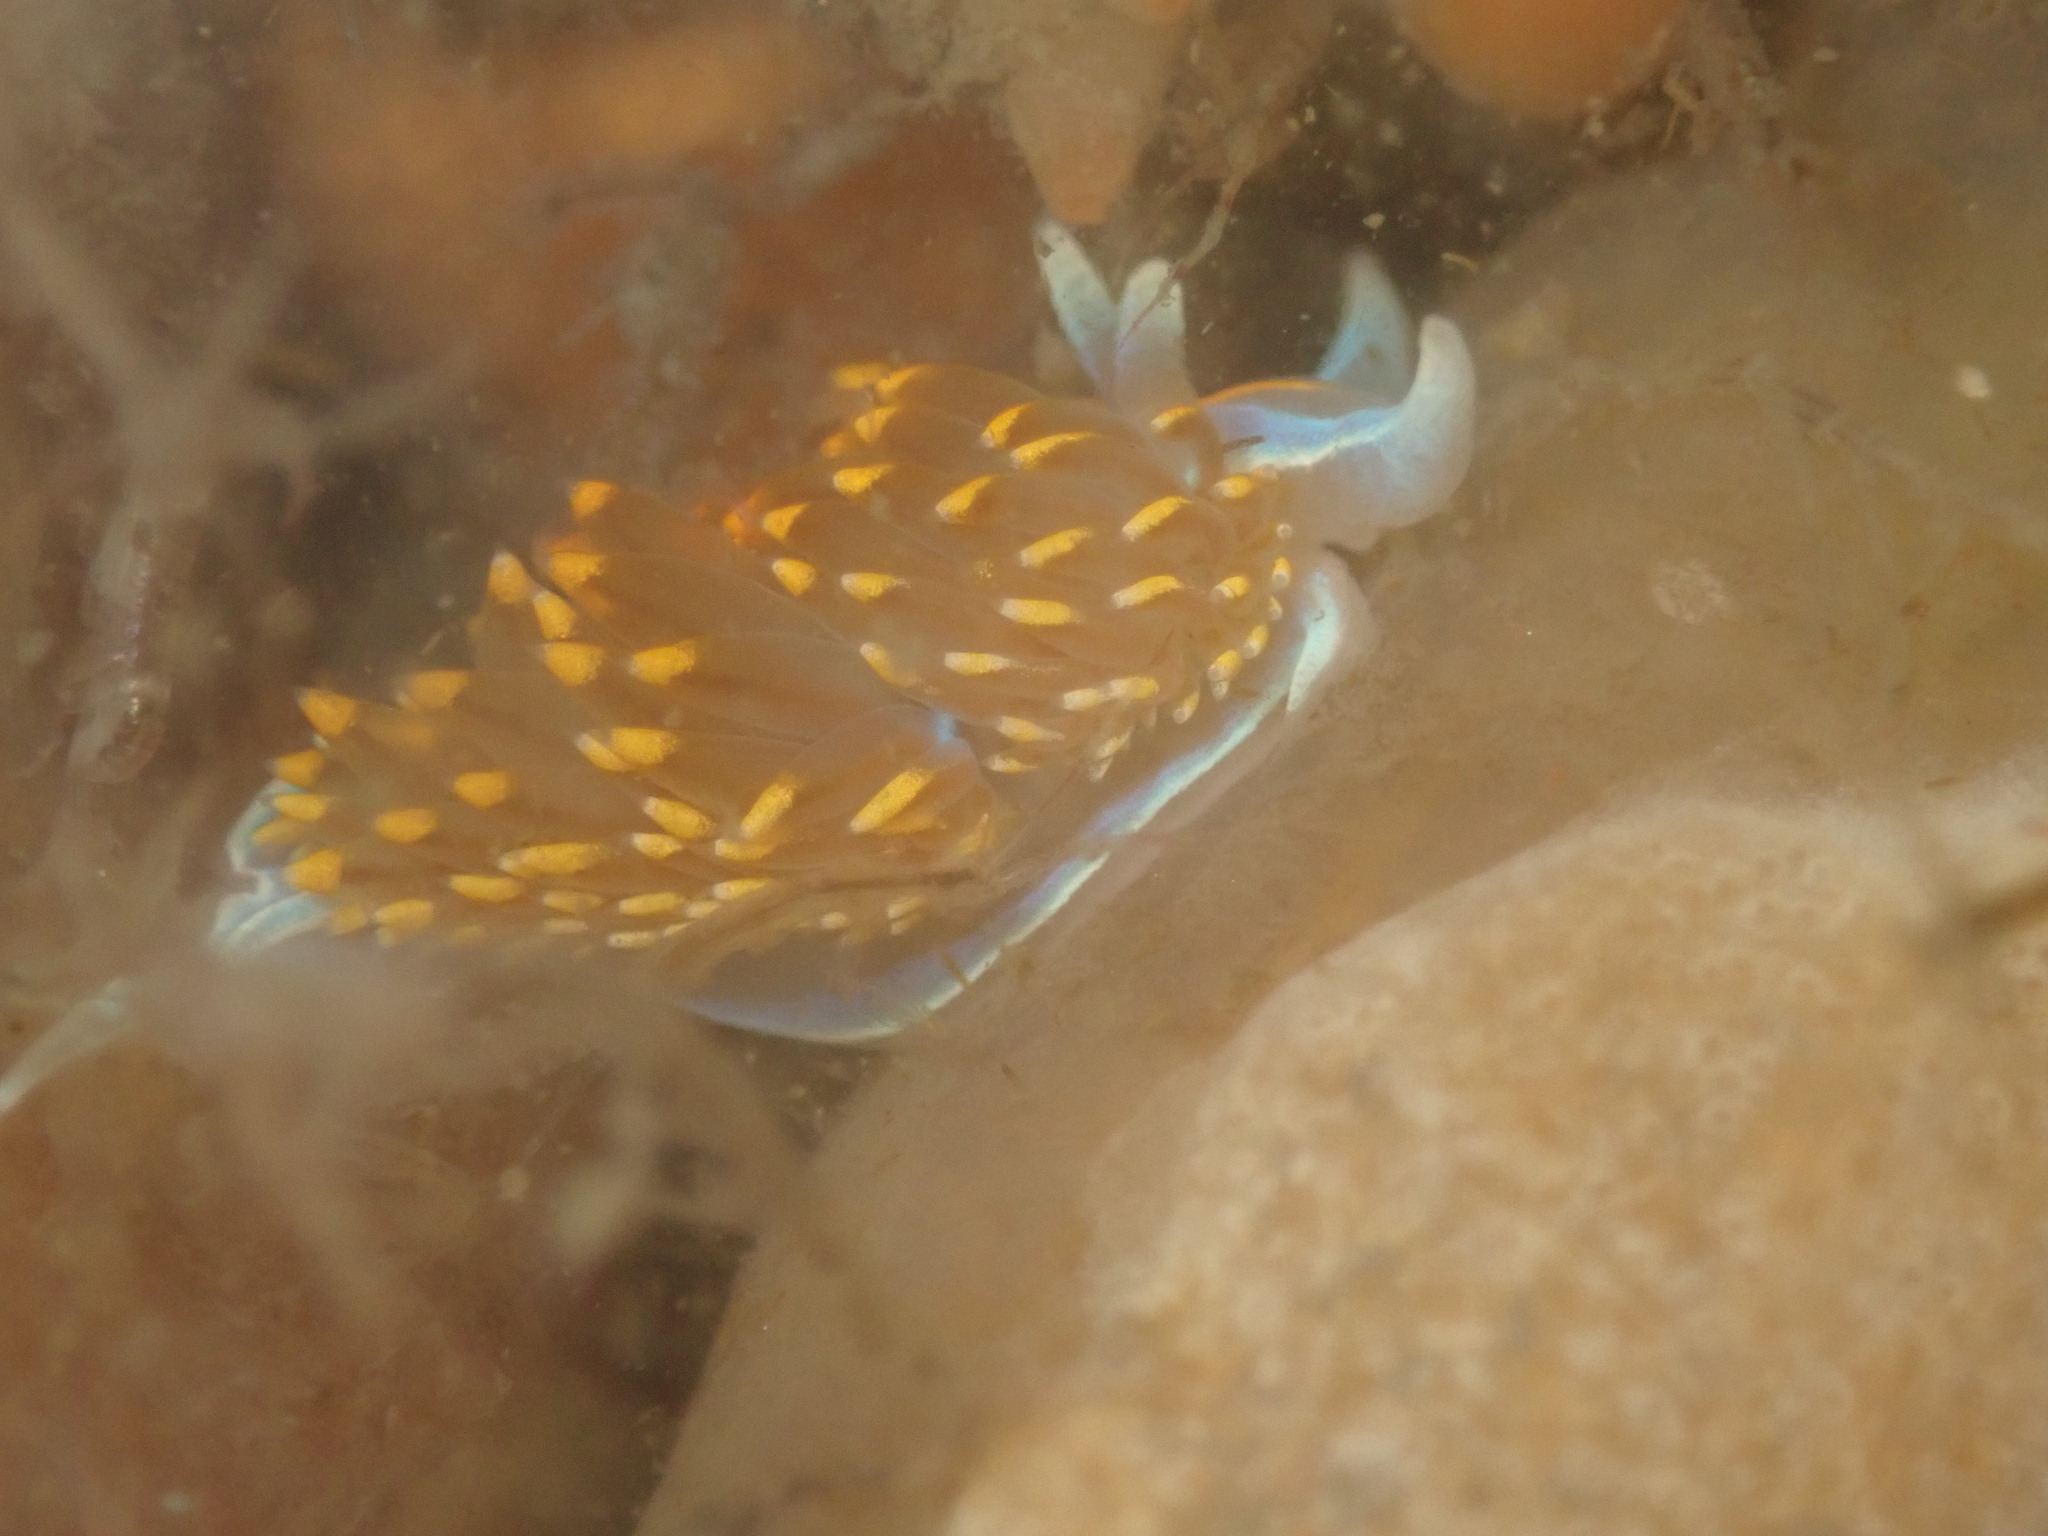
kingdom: Animalia
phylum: Mollusca
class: Gastropoda
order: Nudibranchia
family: Myrrhinidae
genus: Hermissenda
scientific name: Hermissenda opalescens
